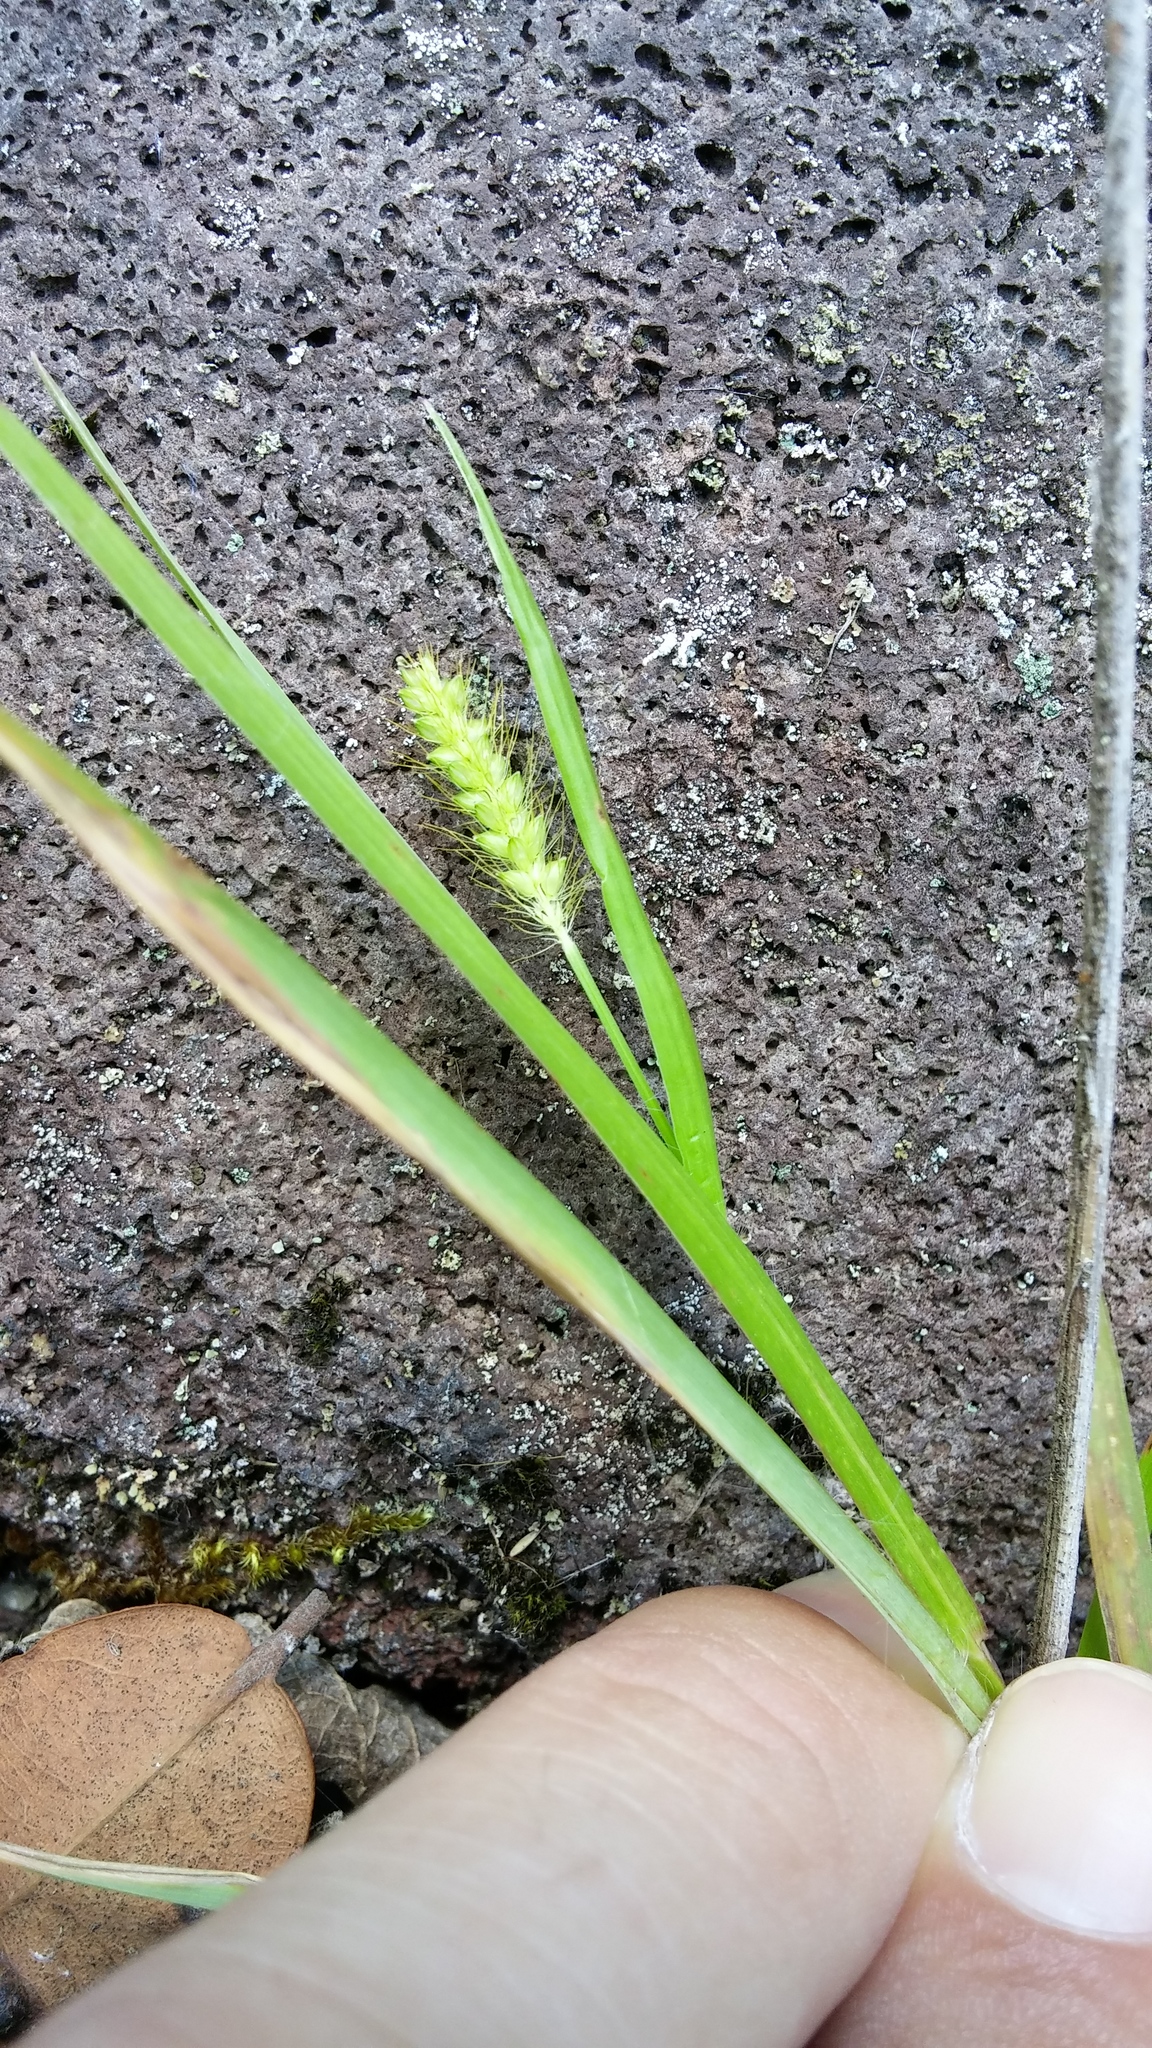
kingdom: Plantae
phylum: Tracheophyta
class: Liliopsida
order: Poales
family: Poaceae
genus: Setaria
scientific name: Setaria parviflora
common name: Knotroot bristle-grass
